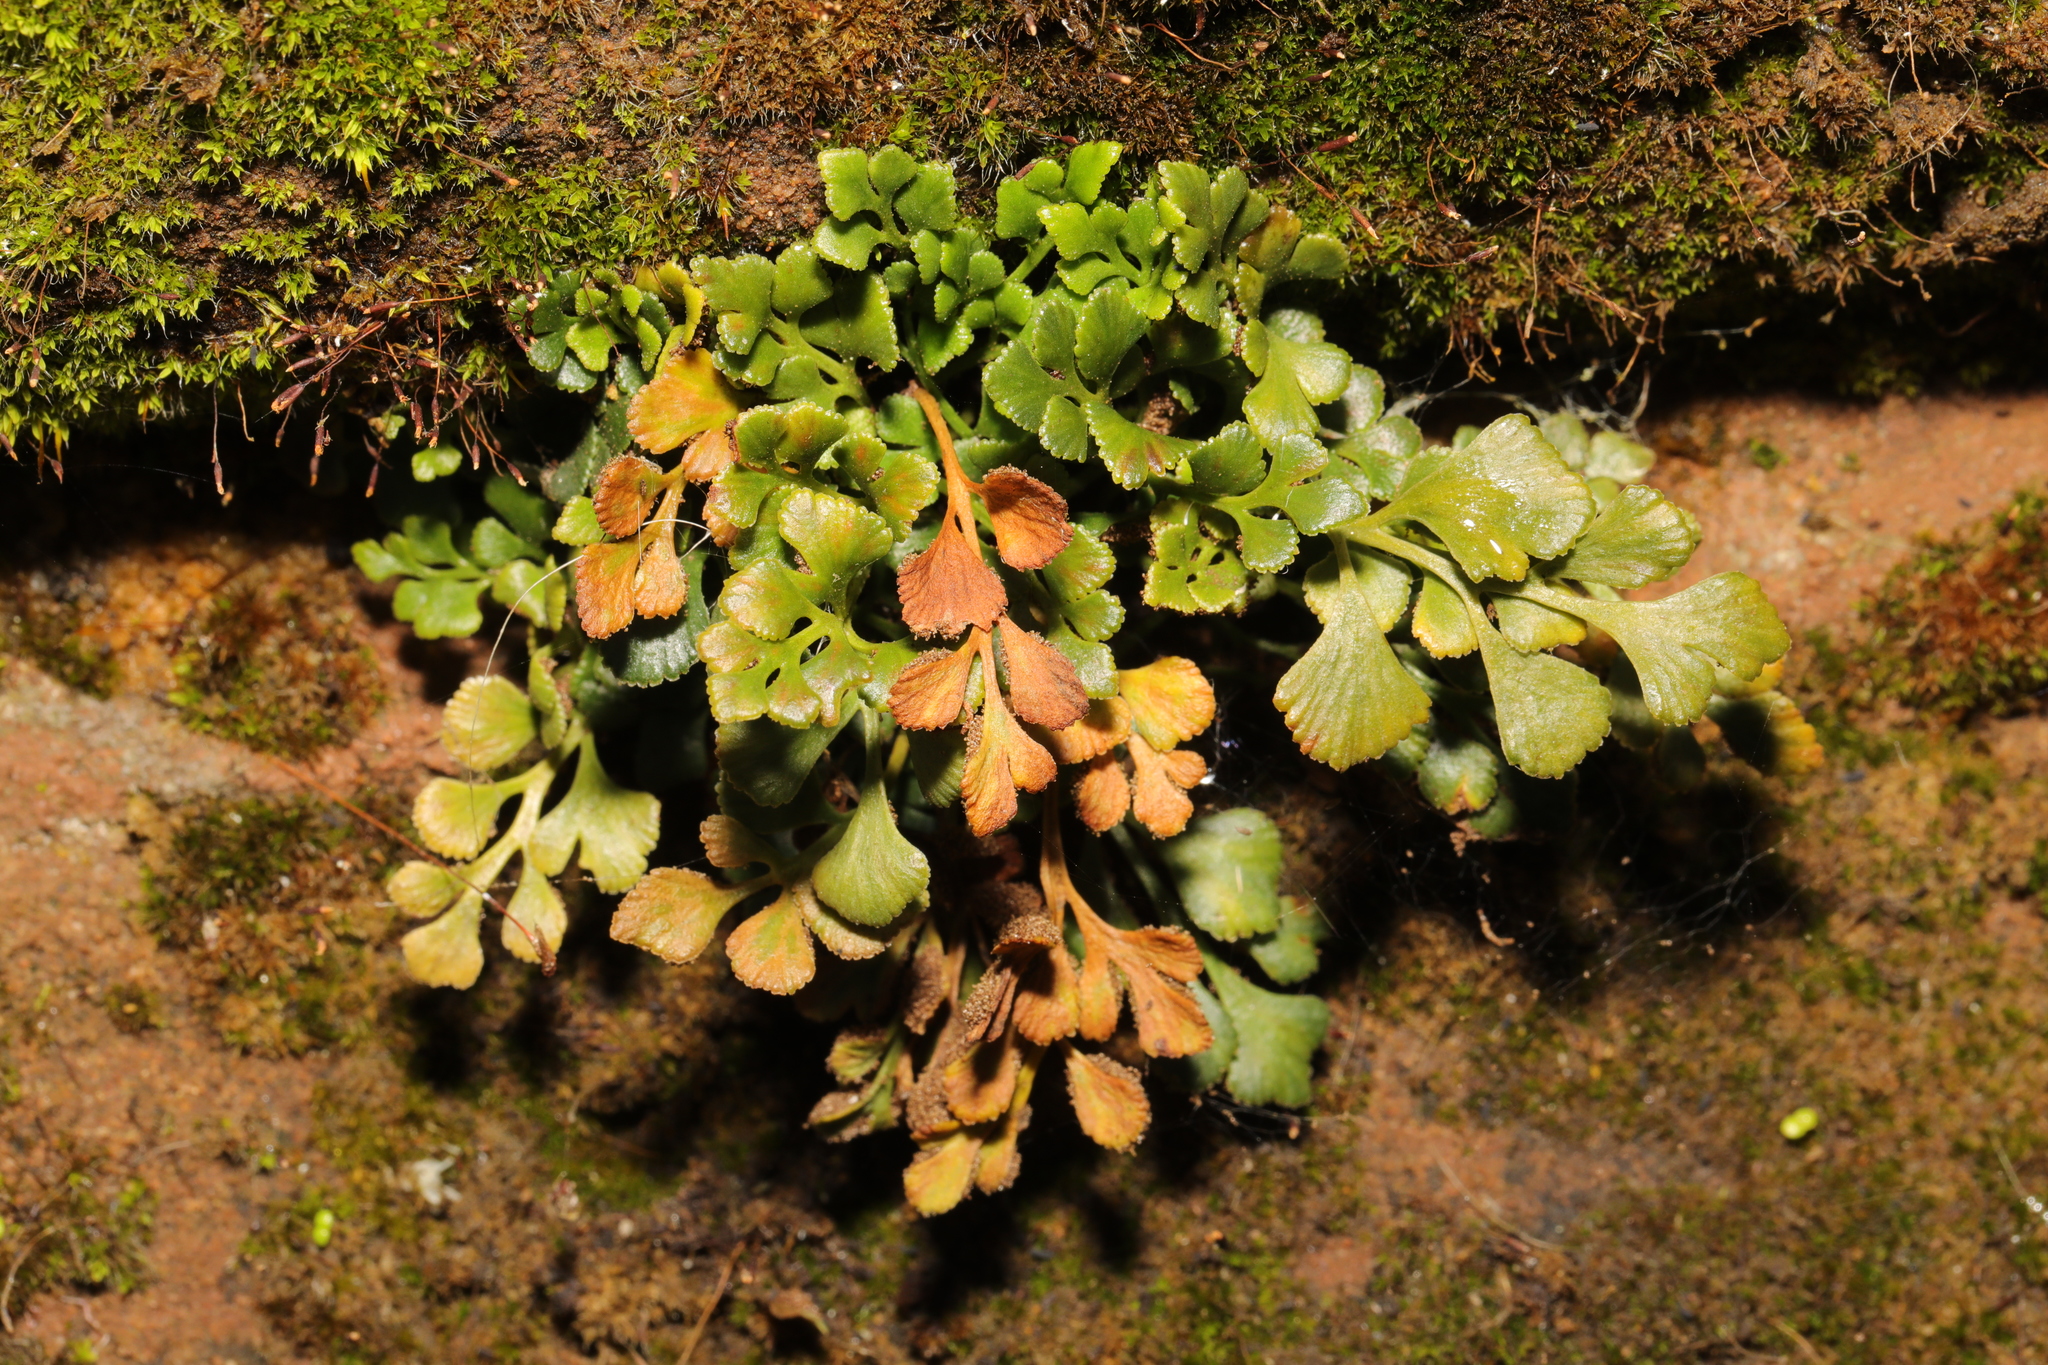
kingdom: Plantae
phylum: Tracheophyta
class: Polypodiopsida
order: Polypodiales
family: Aspleniaceae
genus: Asplenium
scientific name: Asplenium ruta-muraria
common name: Wall-rue
